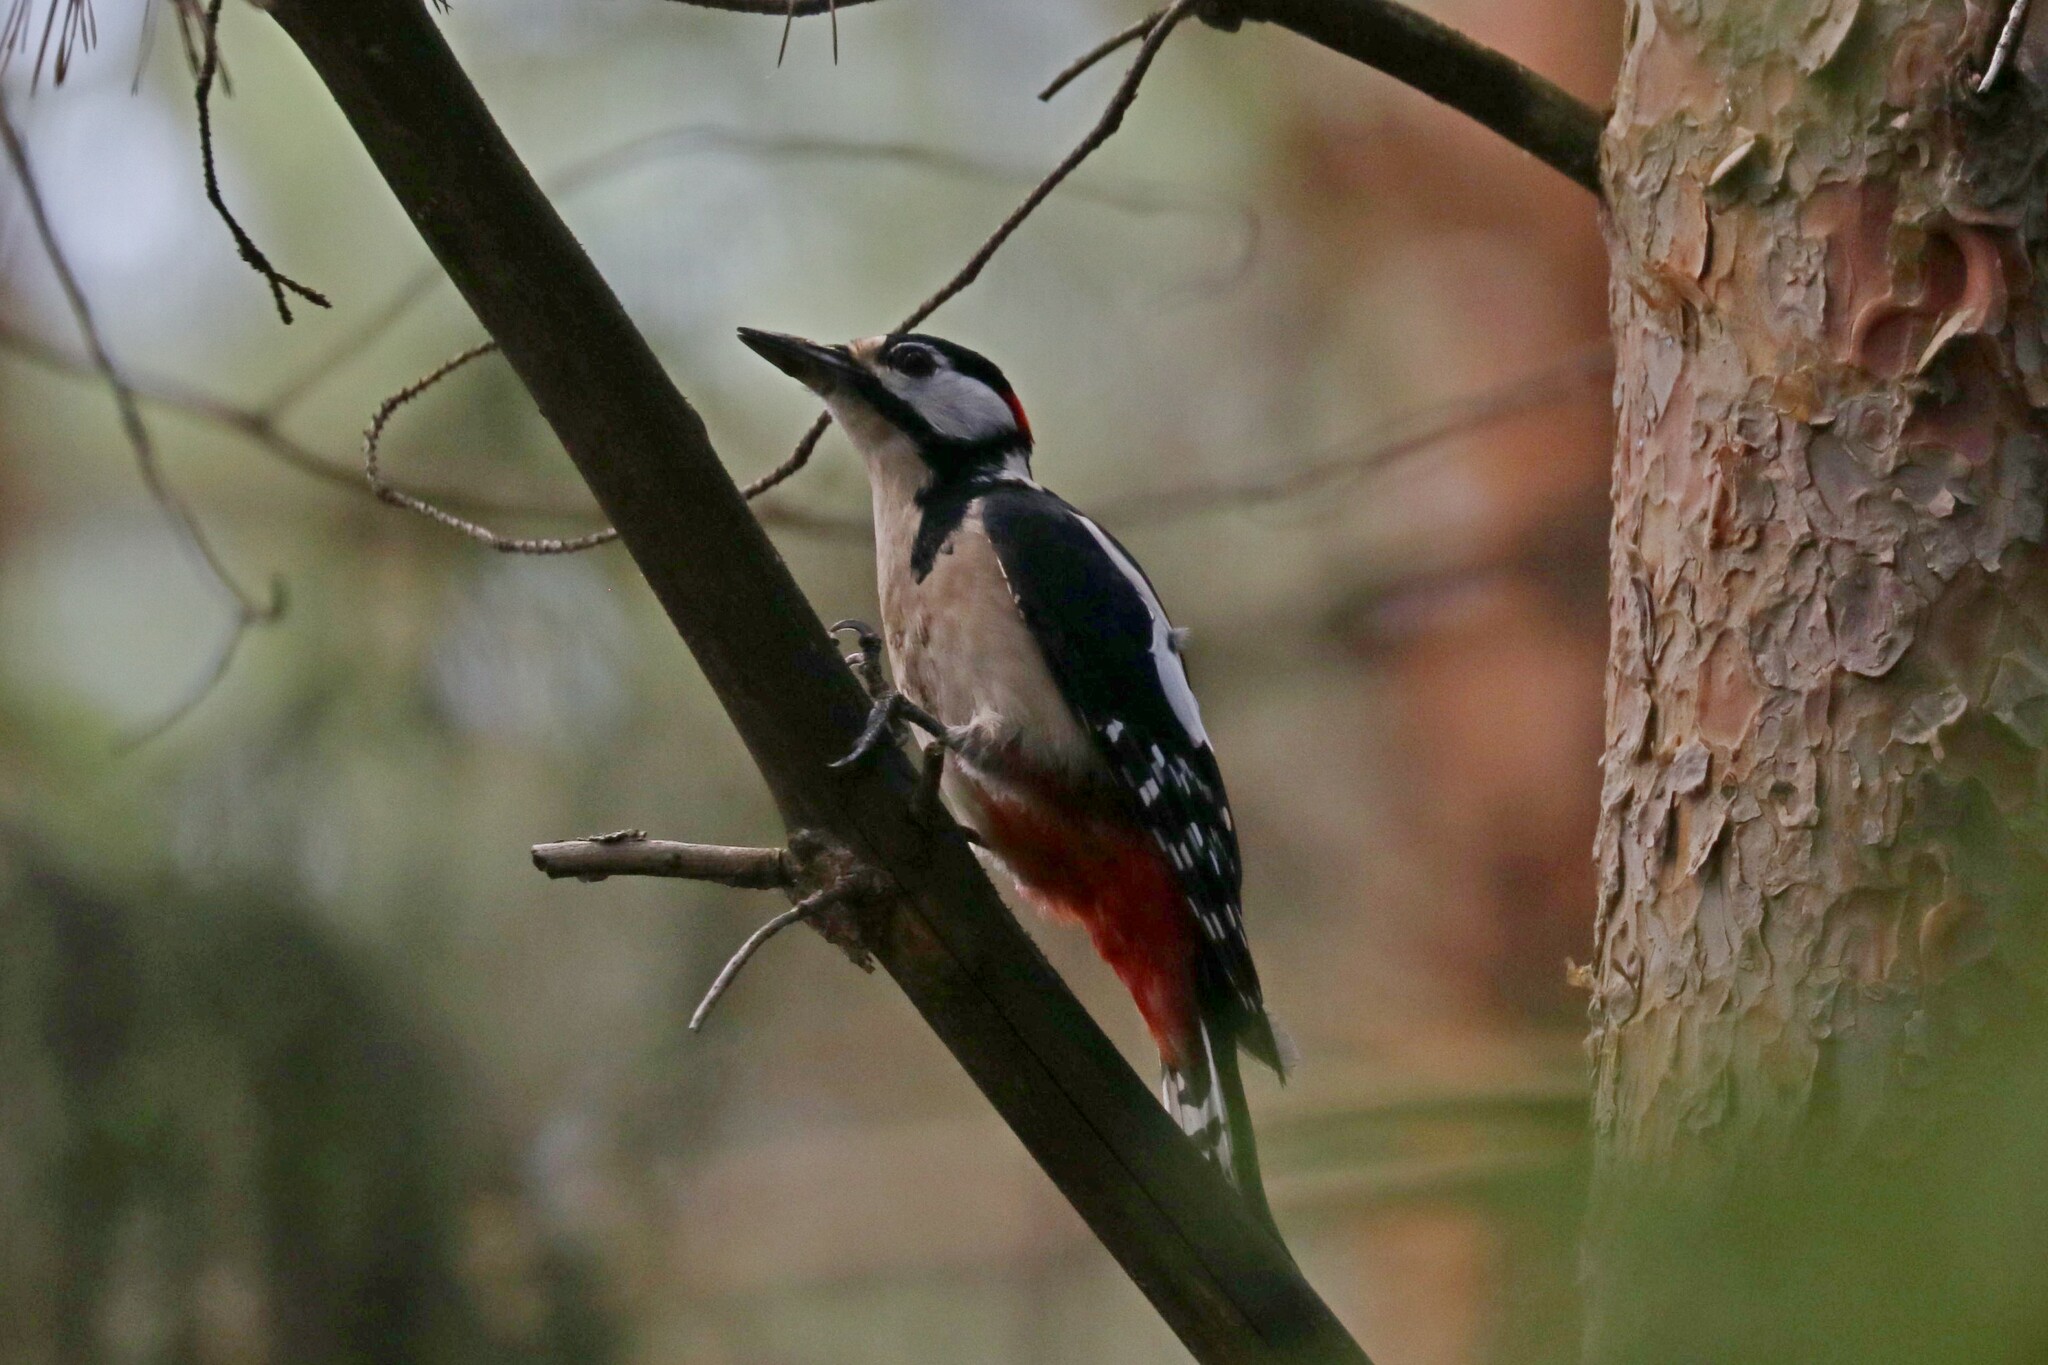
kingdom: Animalia
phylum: Chordata
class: Aves
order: Piciformes
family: Picidae
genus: Dendrocopos
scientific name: Dendrocopos major
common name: Great spotted woodpecker
